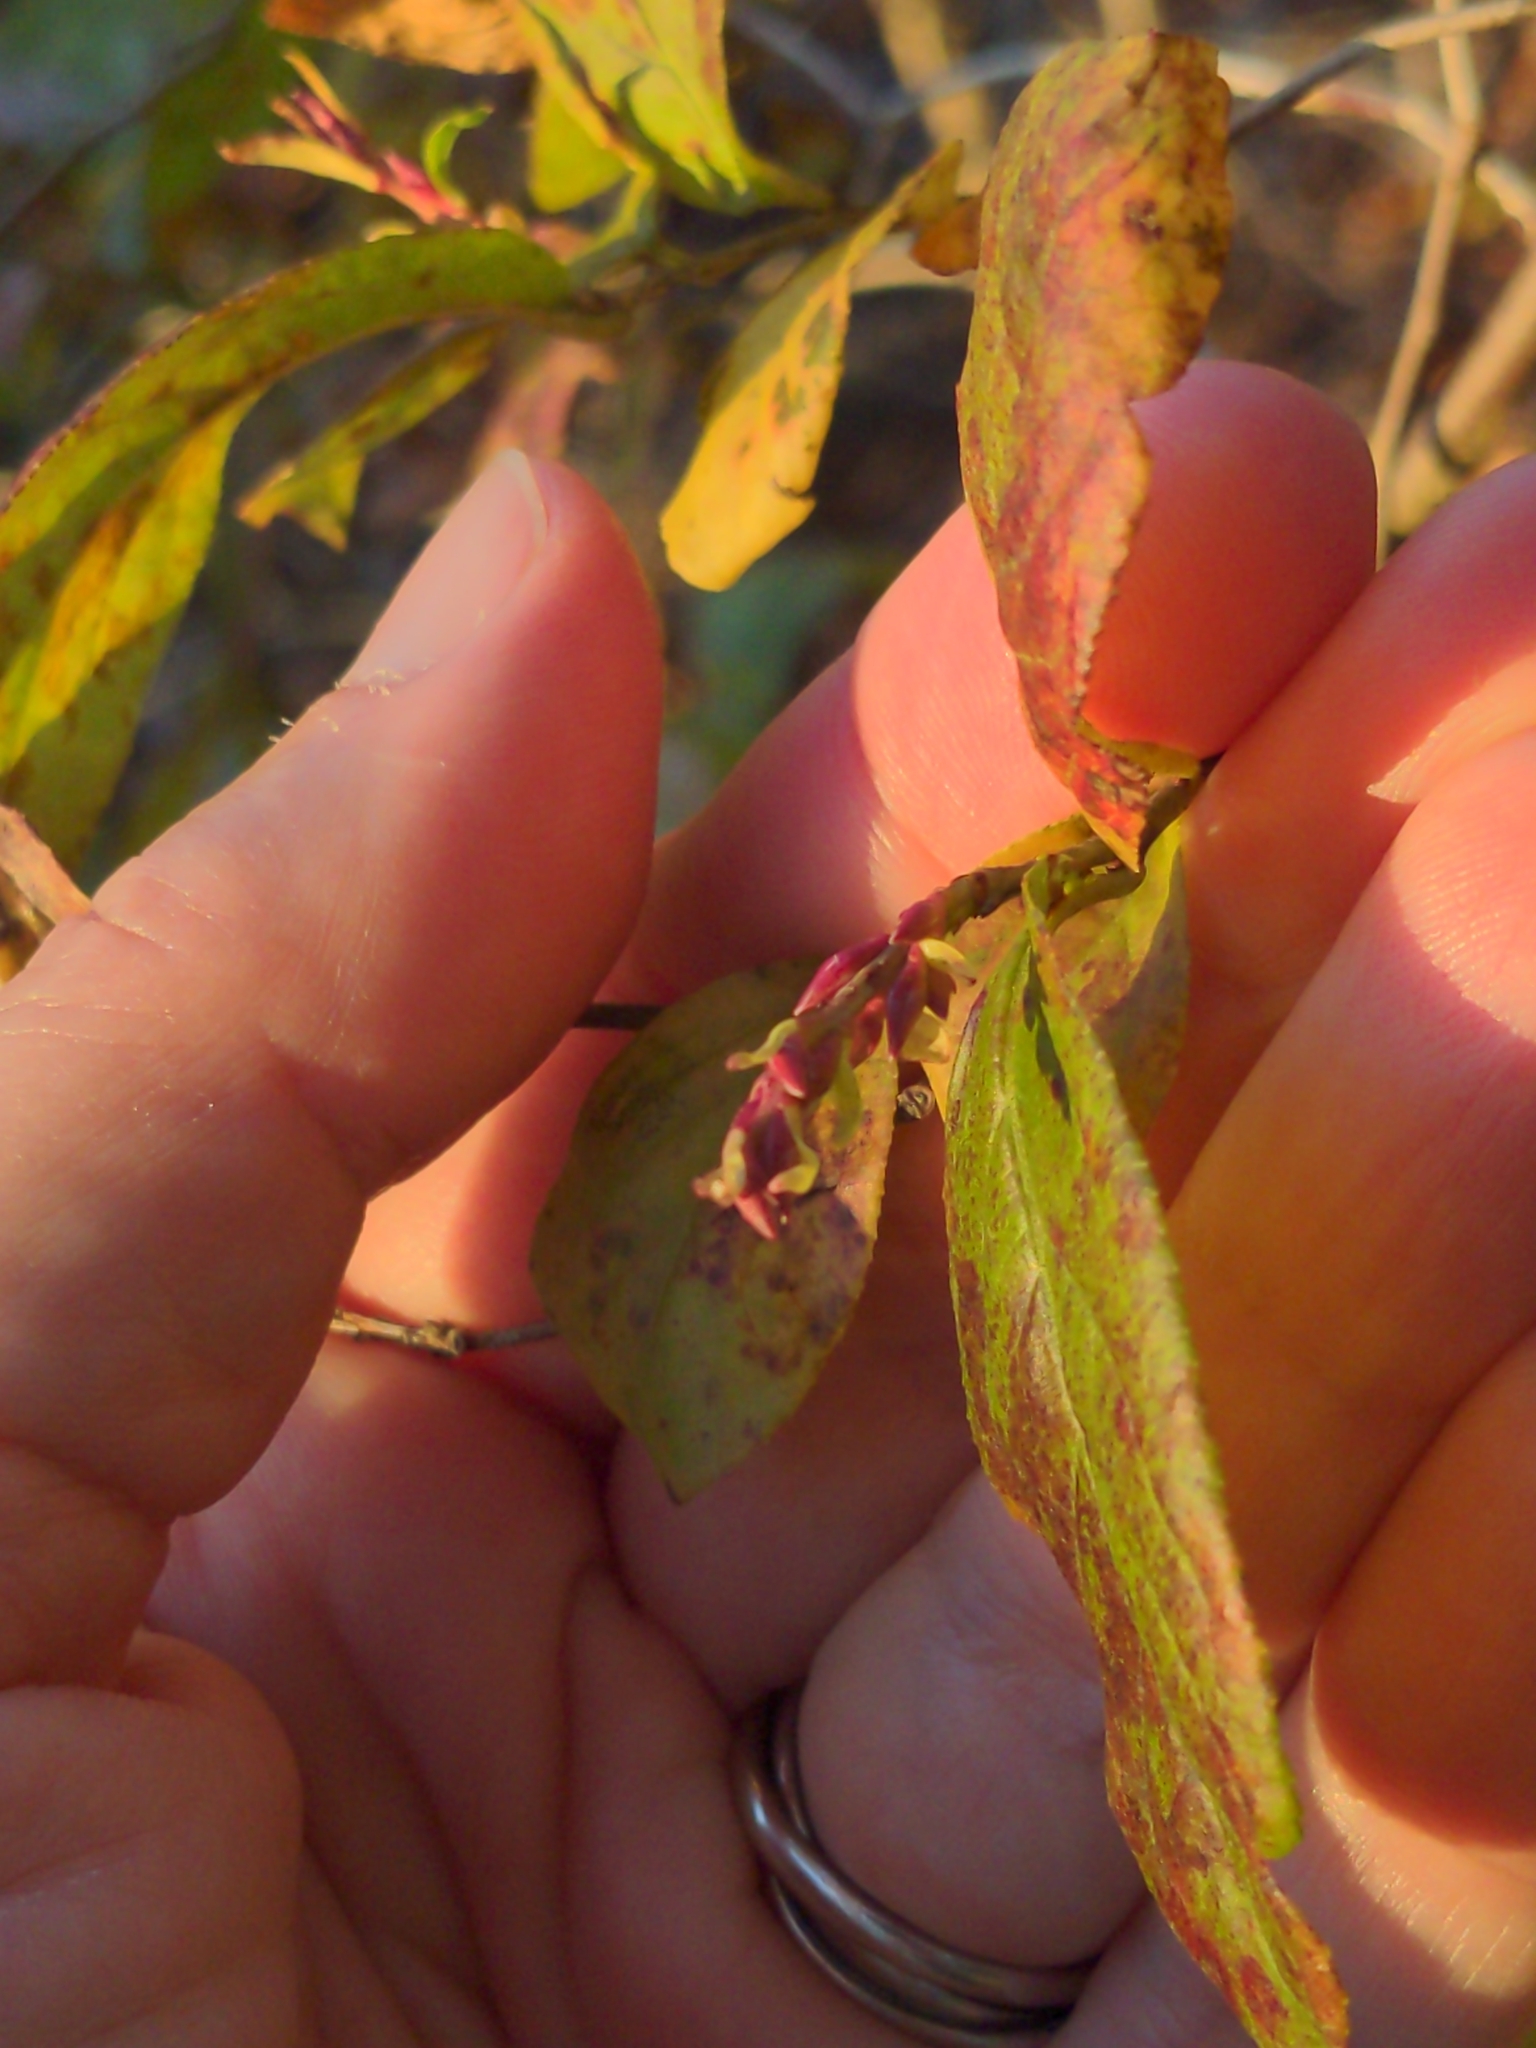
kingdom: Plantae
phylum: Tracheophyta
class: Magnoliopsida
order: Saxifragales
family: Iteaceae
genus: Itea
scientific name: Itea virginica
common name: Sweetspire
